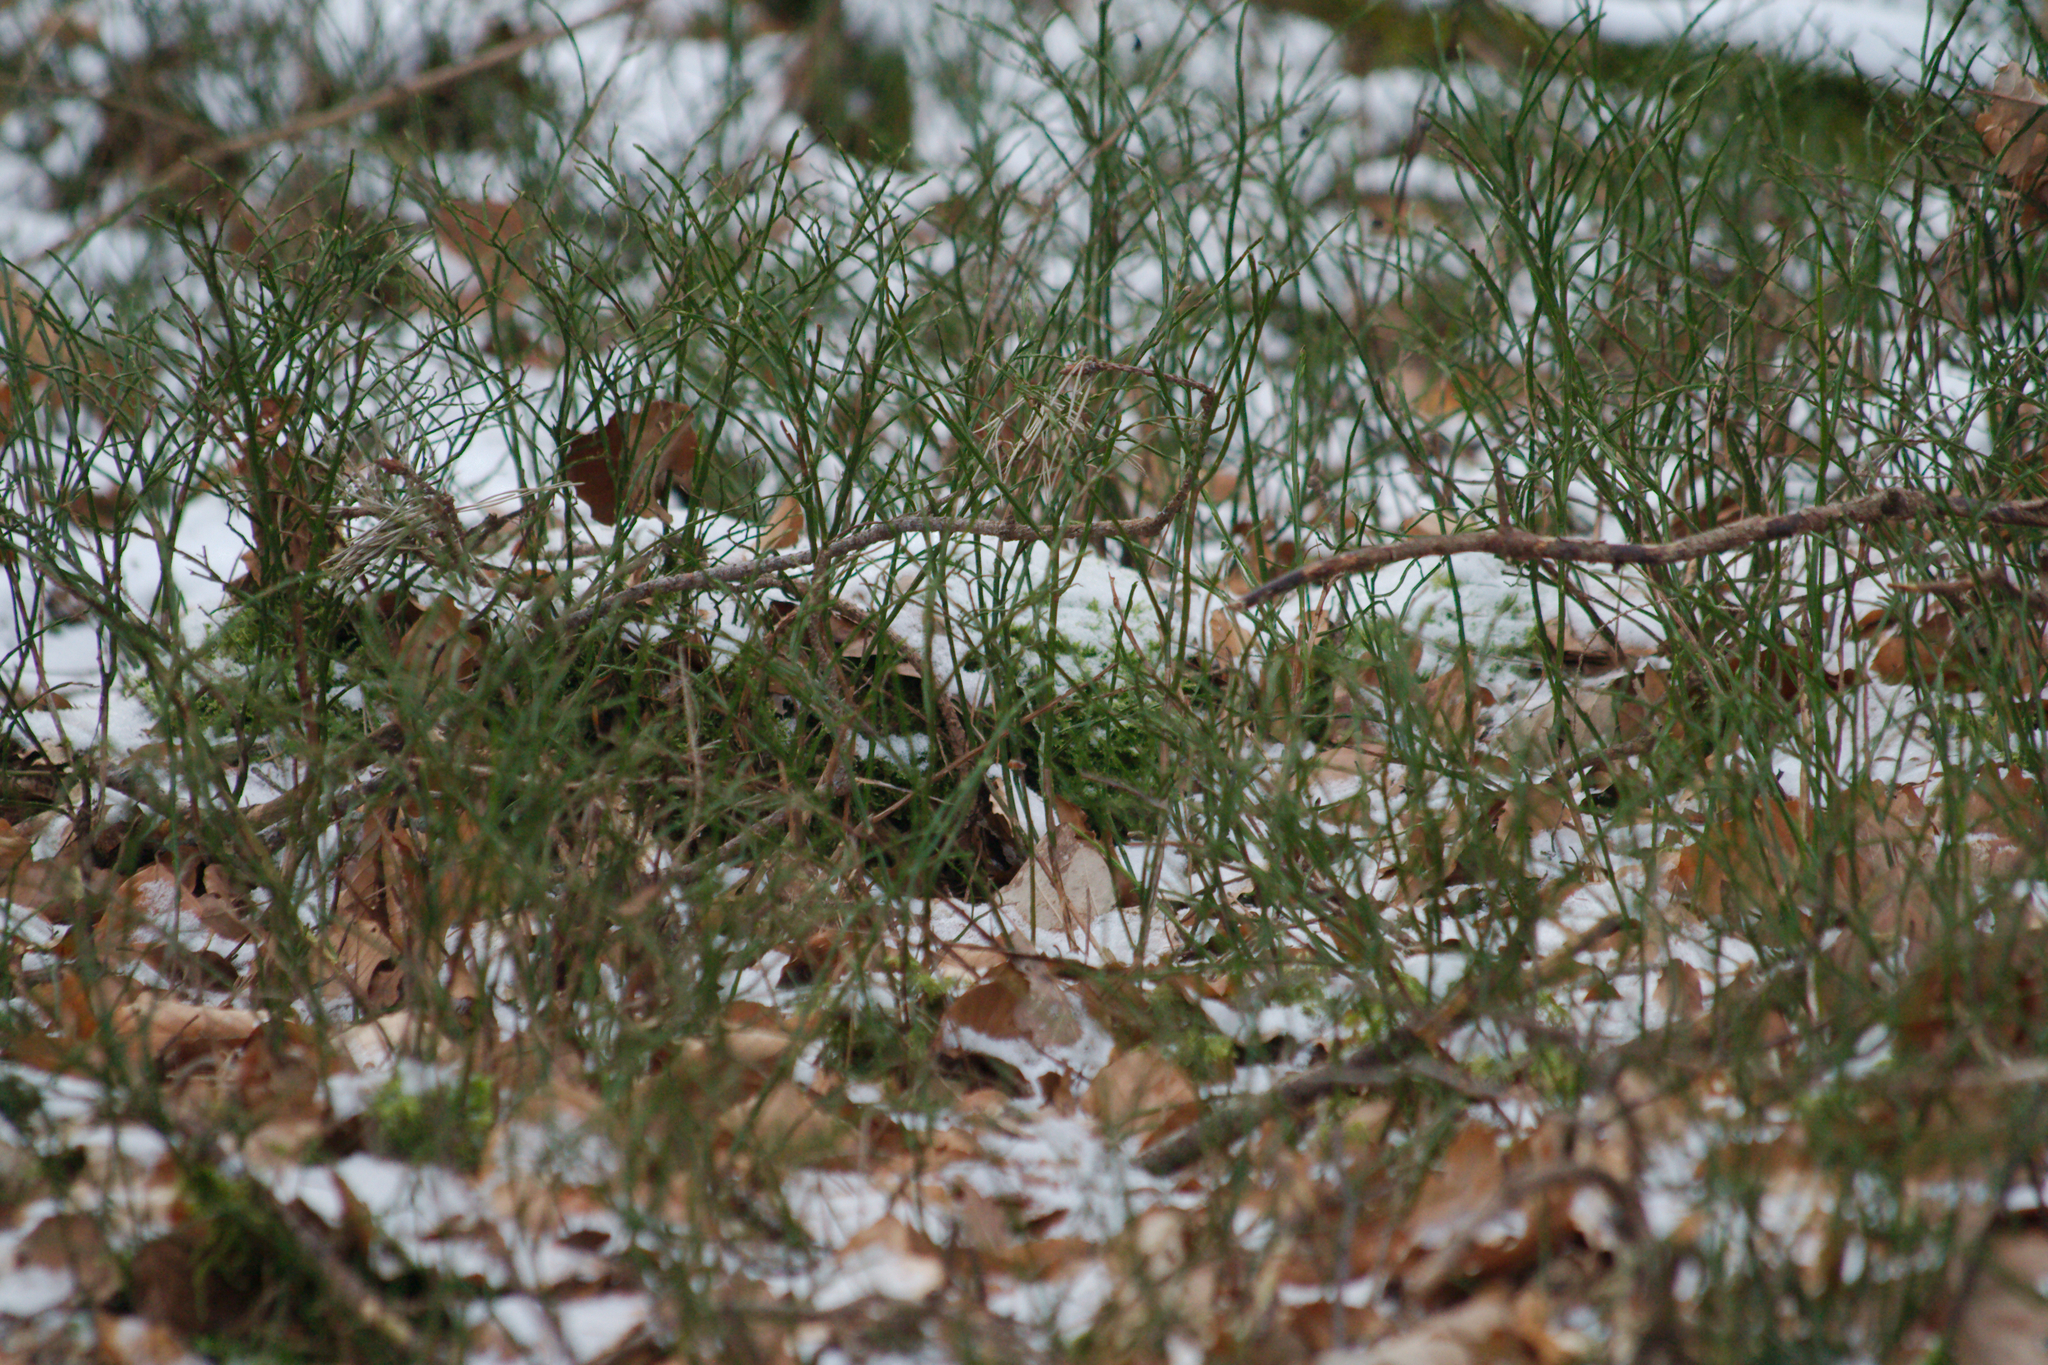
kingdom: Plantae
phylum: Tracheophyta
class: Magnoliopsida
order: Ericales
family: Ericaceae
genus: Vaccinium
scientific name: Vaccinium myrtillus
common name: Bilberry
